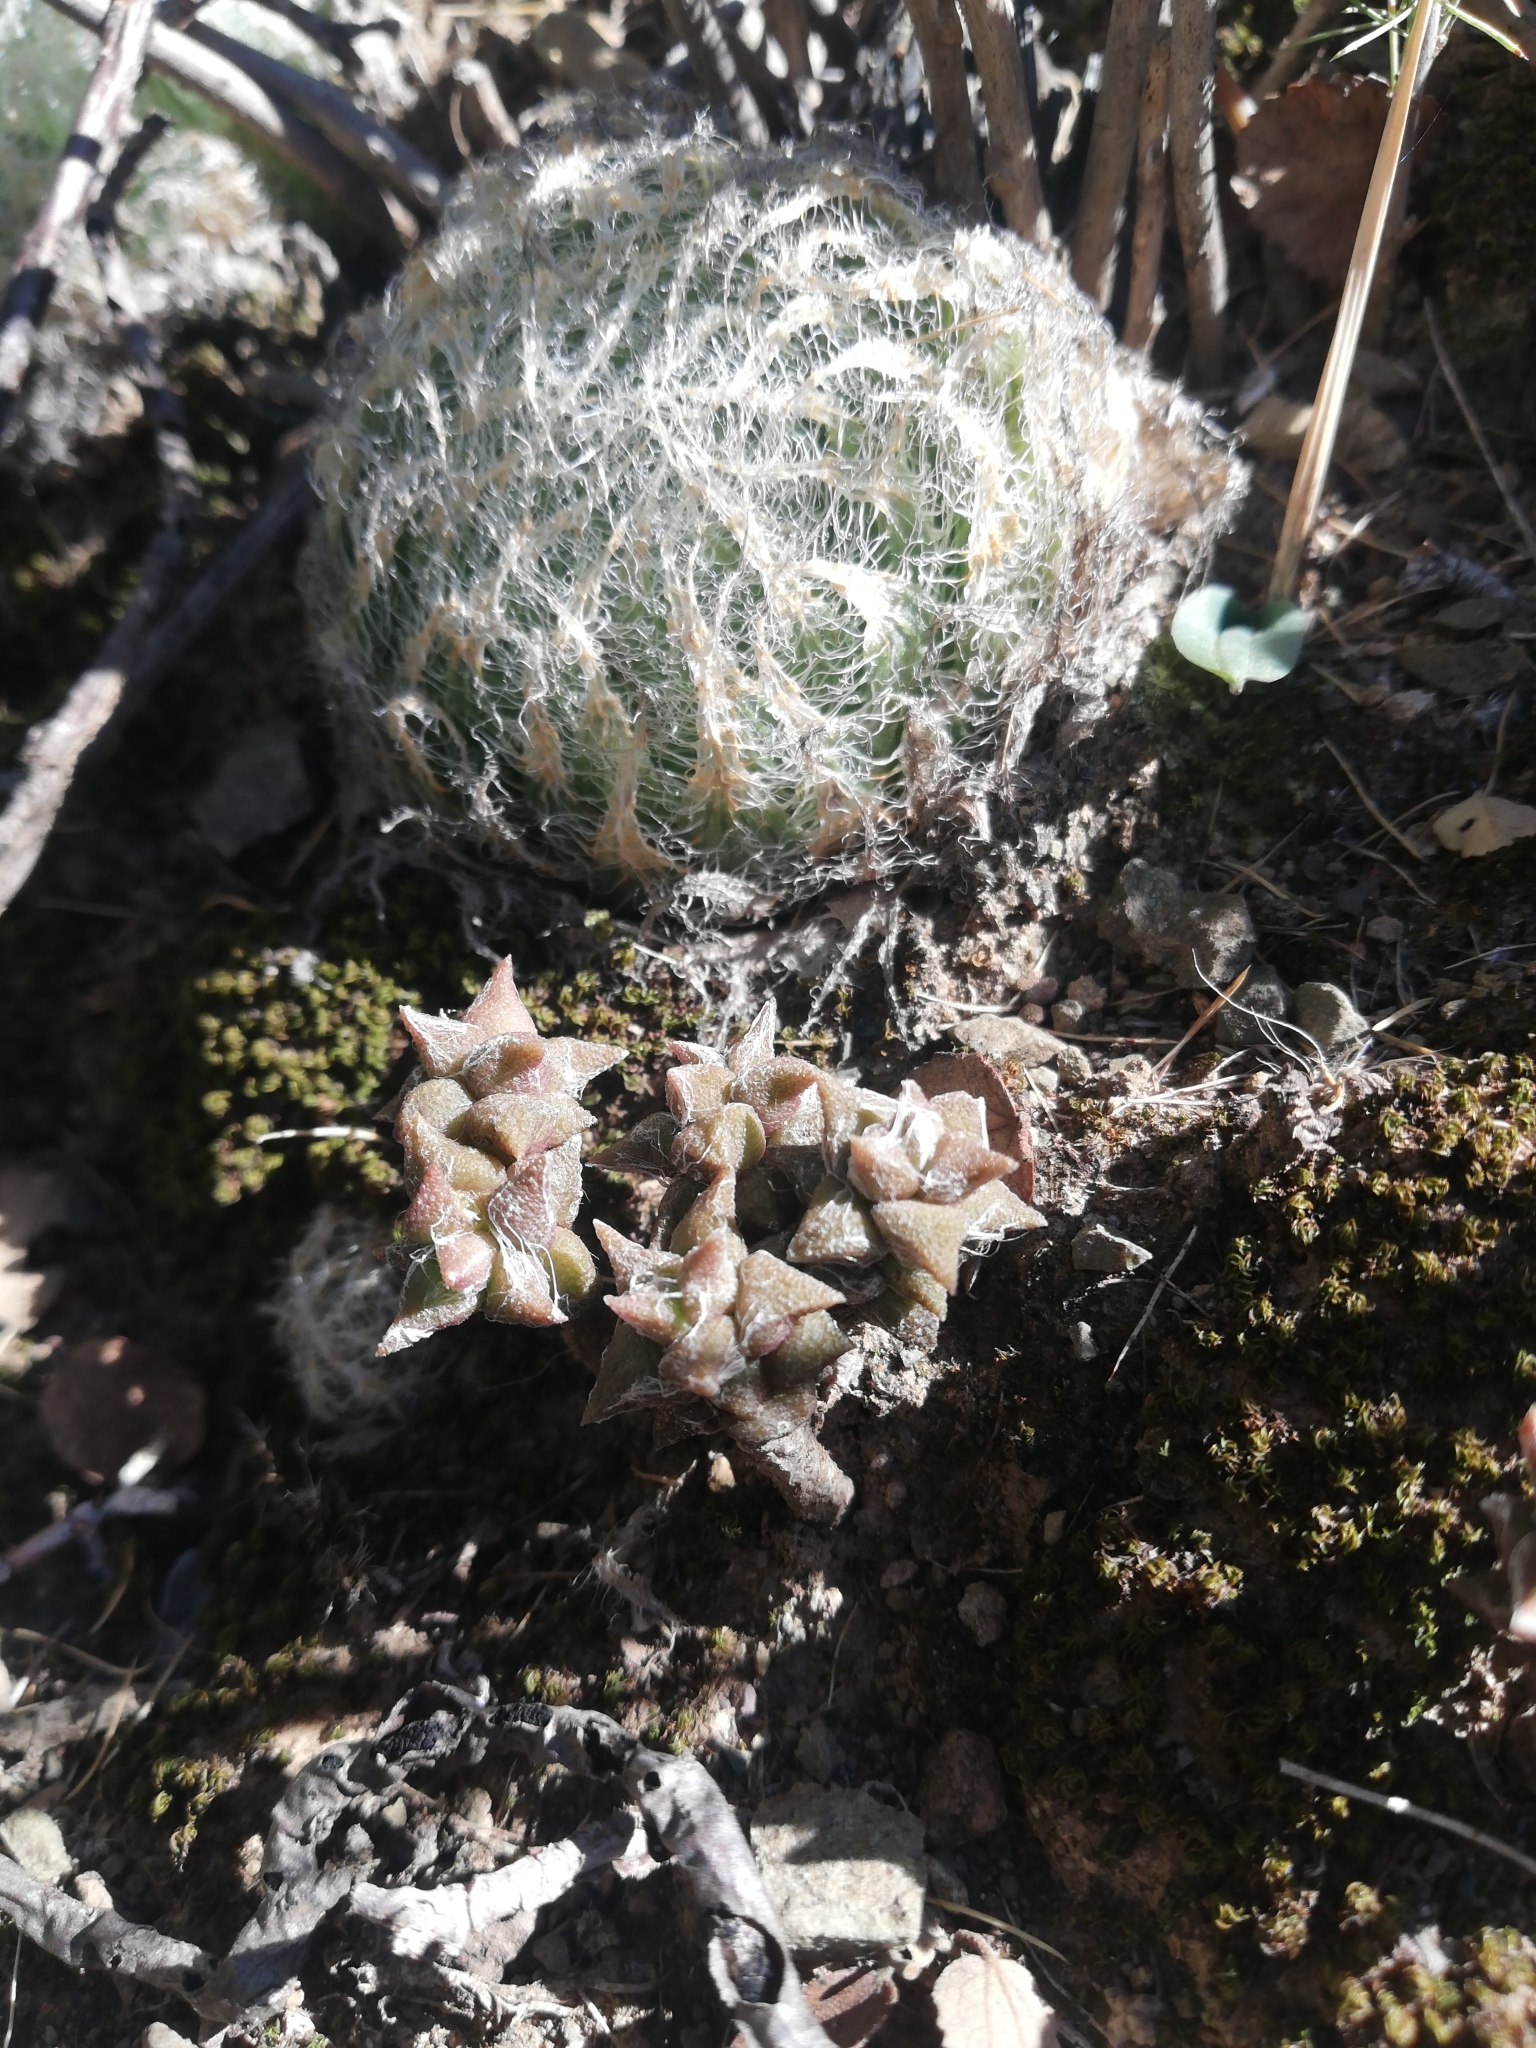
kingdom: Plantae
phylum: Tracheophyta
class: Magnoliopsida
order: Caryophyllales
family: Anacampserotaceae
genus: Anacampseros
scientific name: Anacampseros arachnoides
